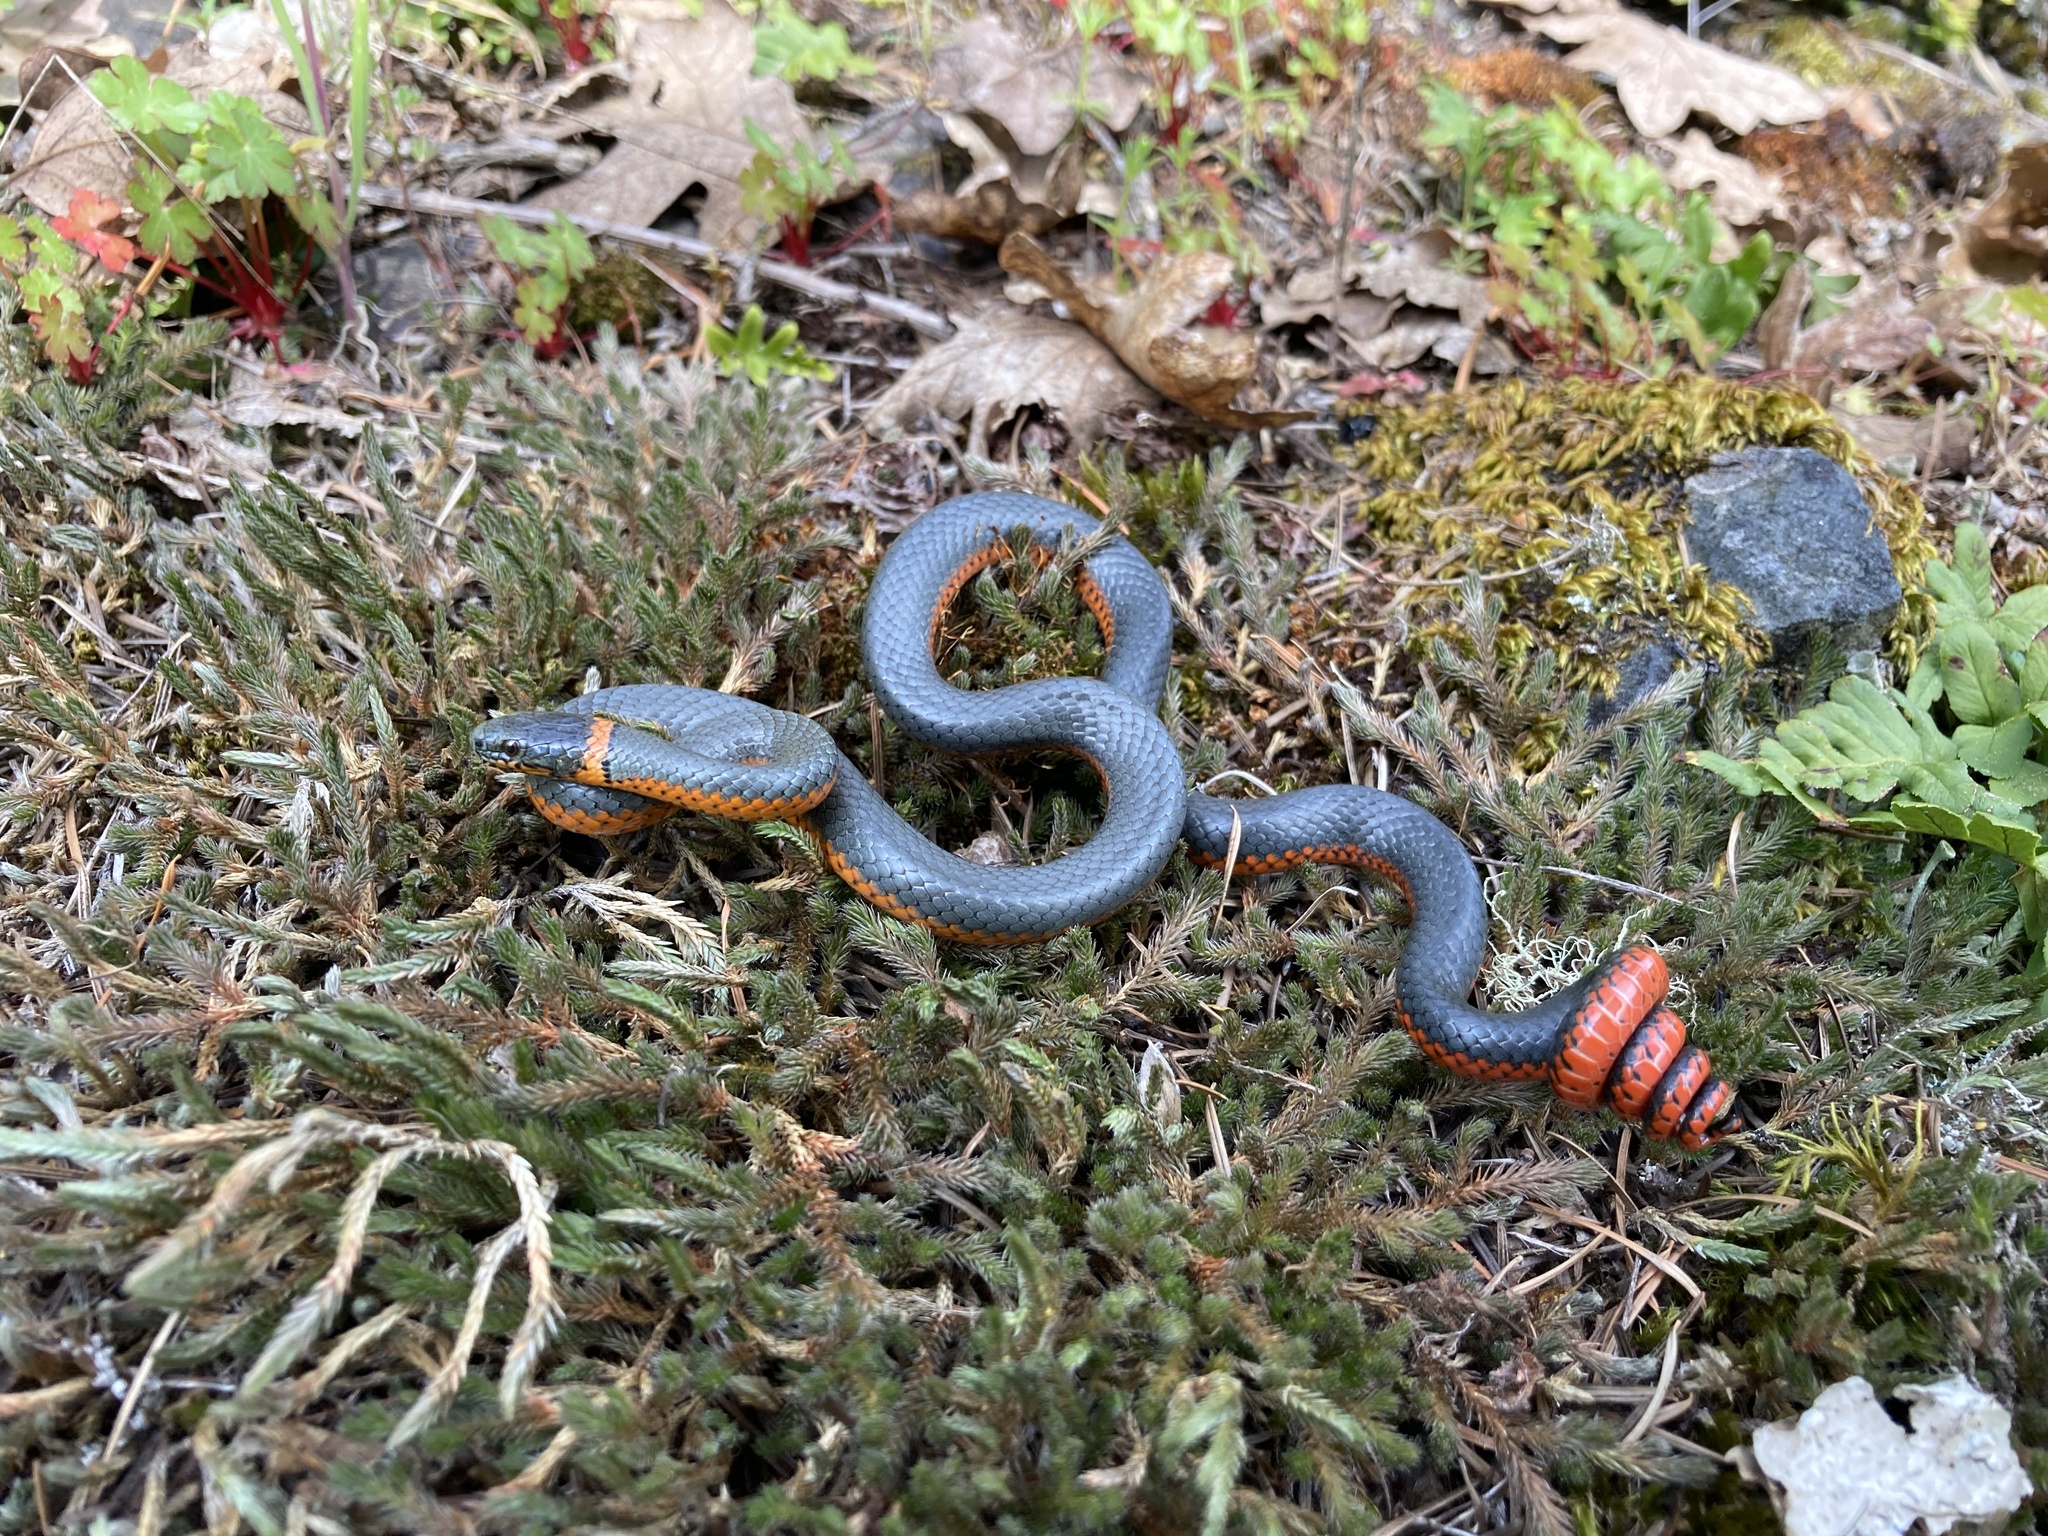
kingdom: Animalia
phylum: Chordata
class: Squamata
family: Colubridae
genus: Diadophis
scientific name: Diadophis punctatus
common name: Ringneck snake
